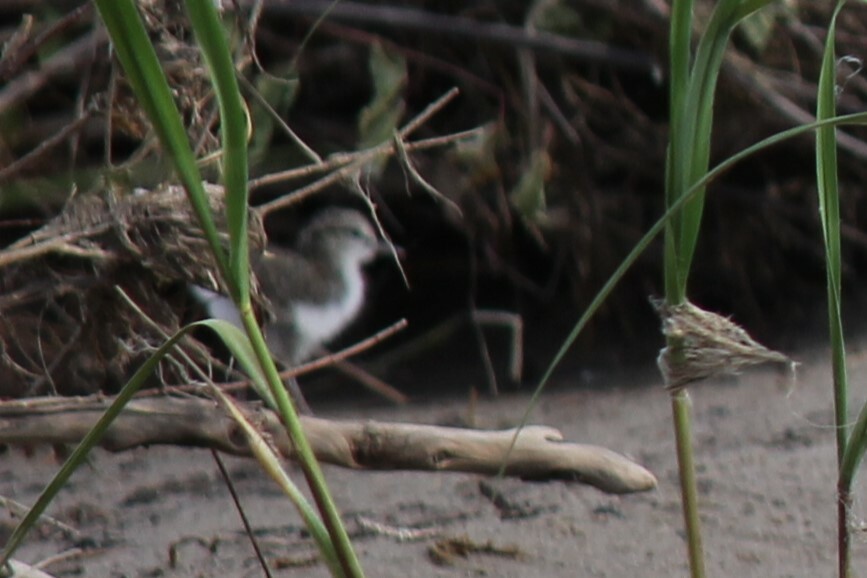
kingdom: Animalia
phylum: Chordata
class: Aves
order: Charadriiformes
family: Scolopacidae
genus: Actitis
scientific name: Actitis macularius
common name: Spotted sandpiper
